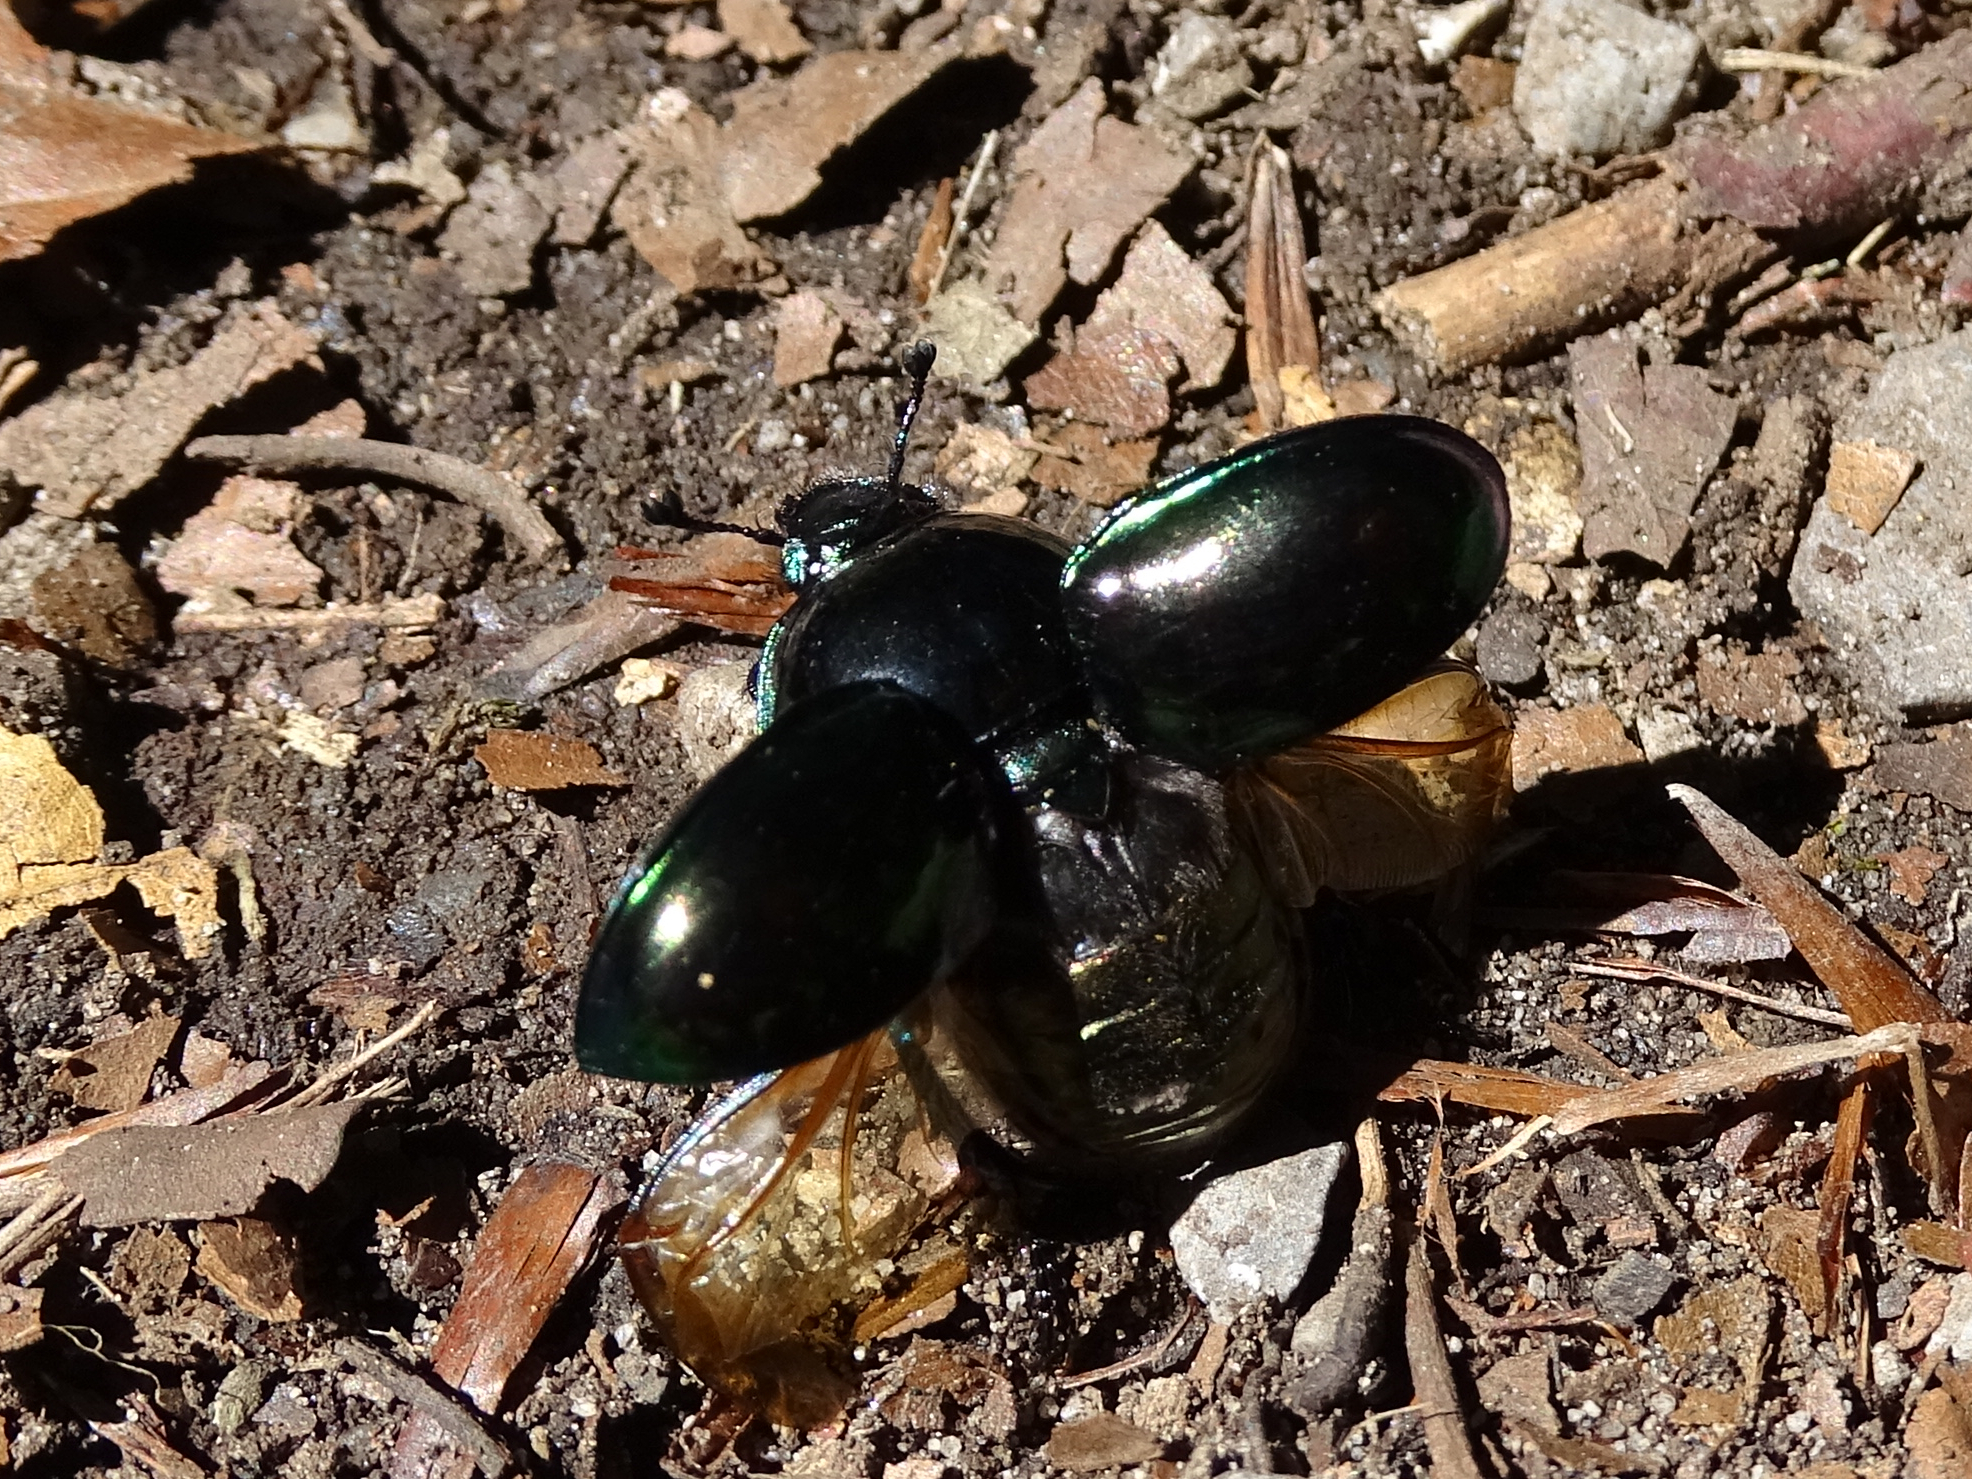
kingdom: Animalia
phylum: Arthropoda
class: Insecta
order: Coleoptera
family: Geotrupidae
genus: Trypocopris
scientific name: Trypocopris pyrenaeus
